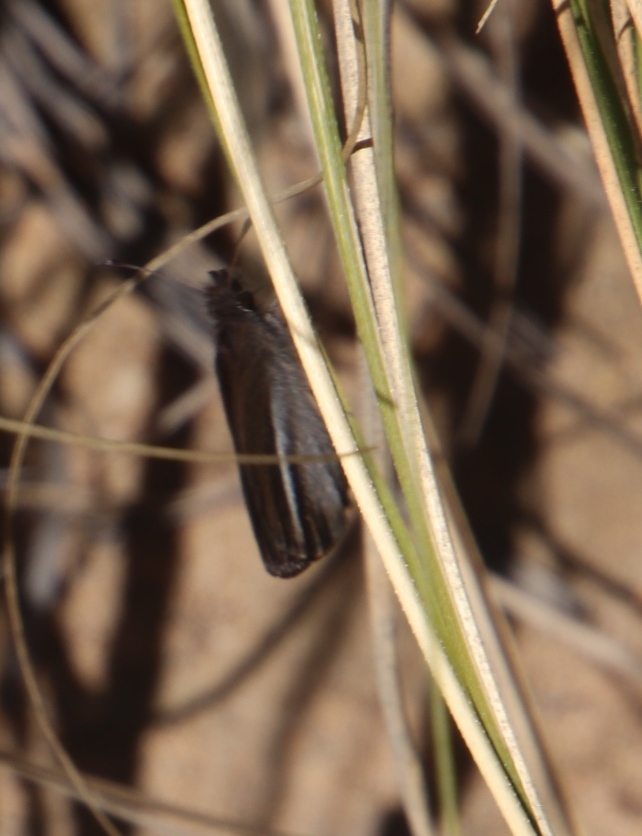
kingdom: Animalia
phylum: Arthropoda
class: Insecta
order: Lepidoptera
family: Hesperiidae
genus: Tsitana
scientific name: Tsitana tulbagha
